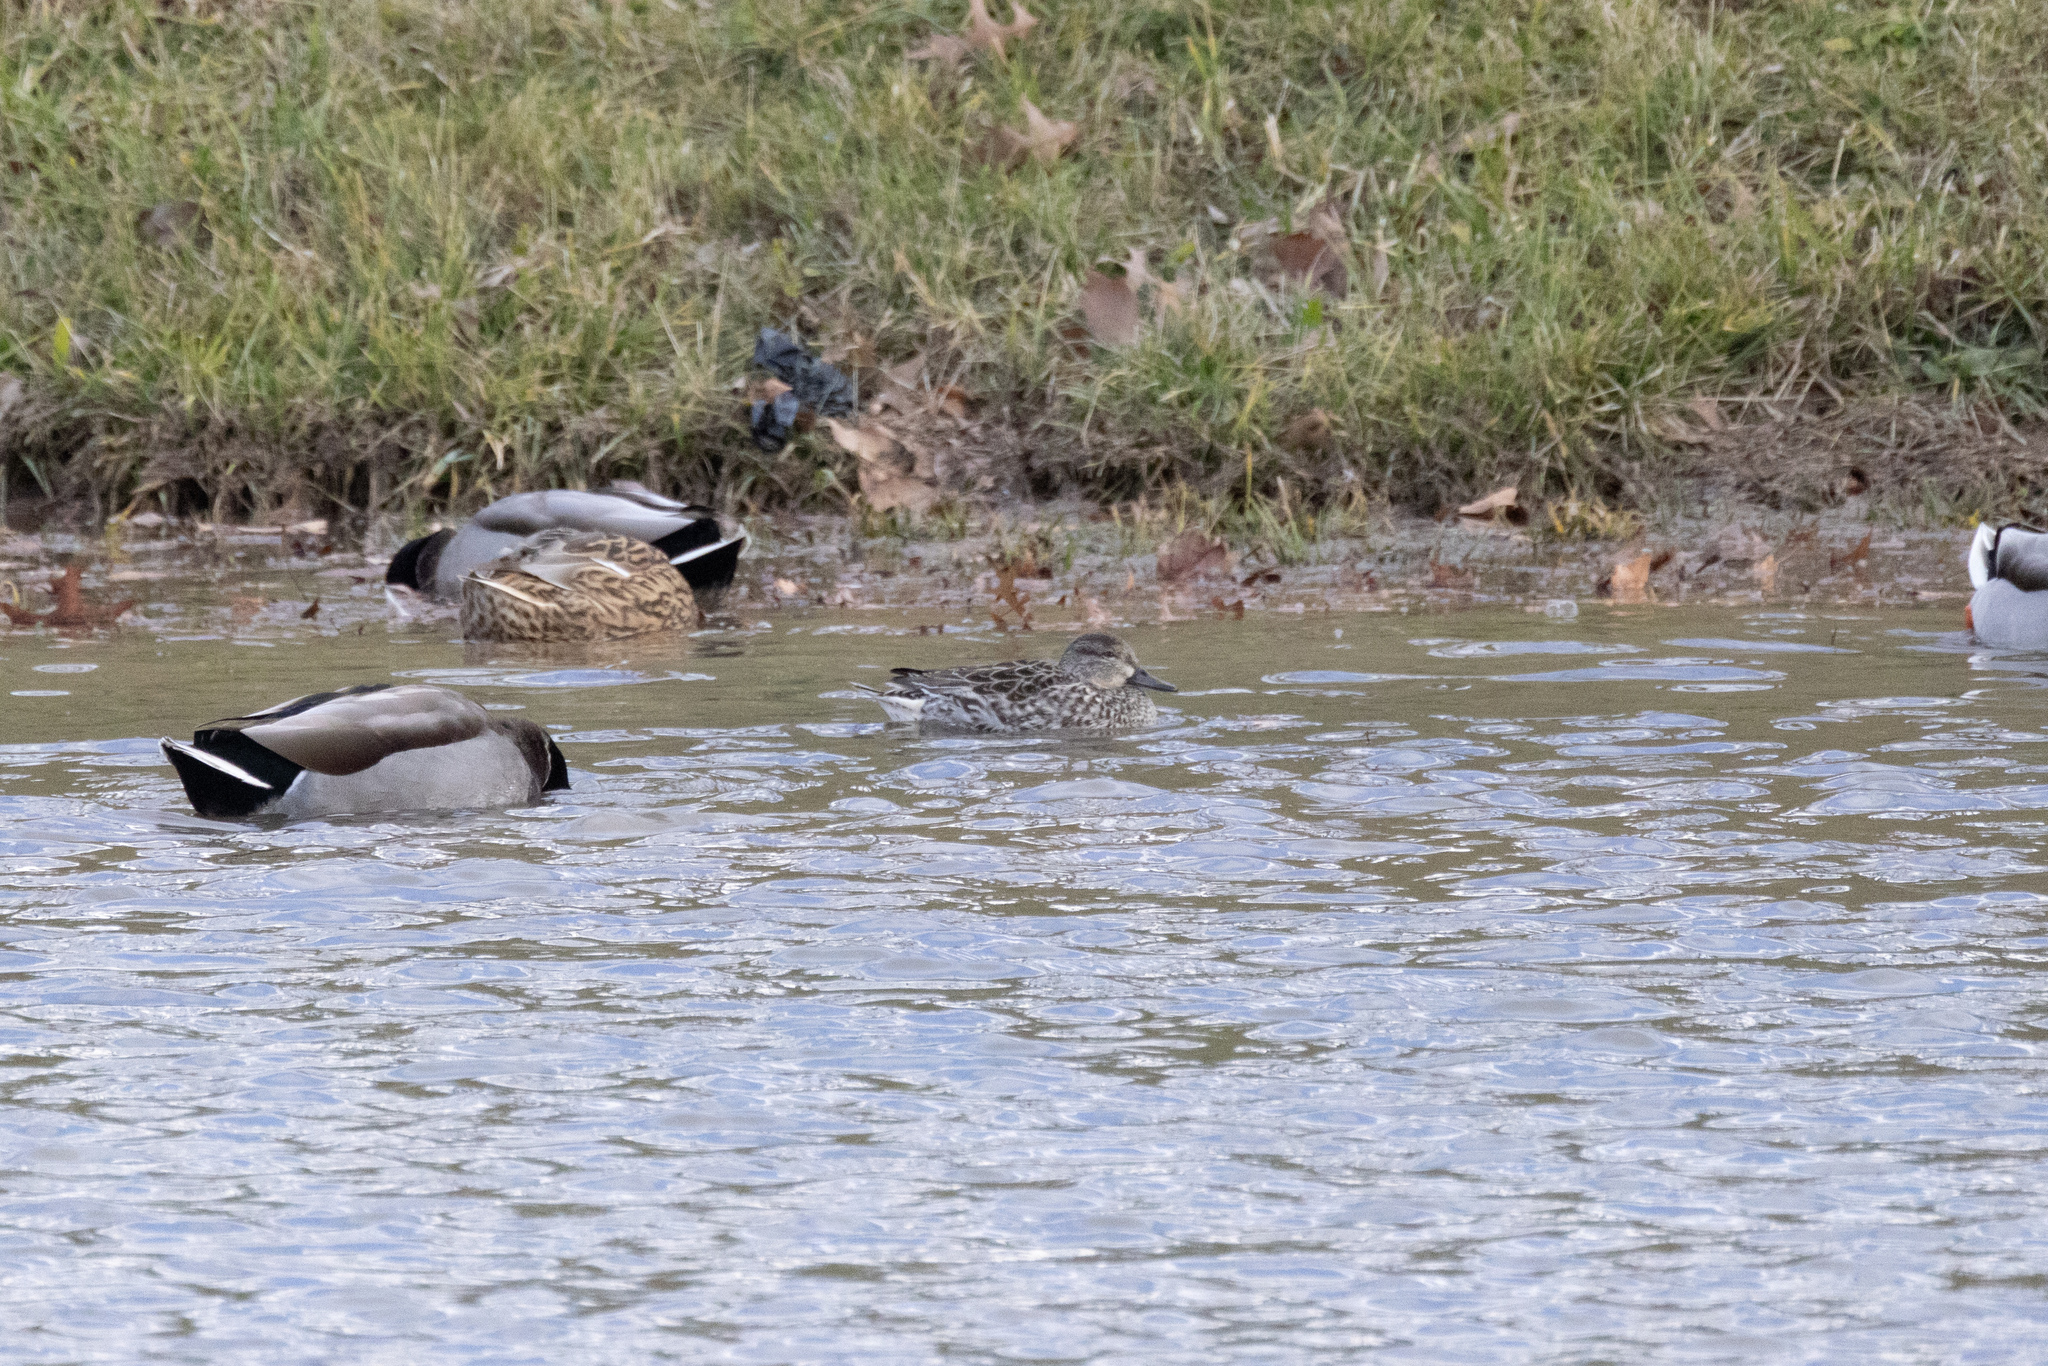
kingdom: Animalia
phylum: Chordata
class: Aves
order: Anseriformes
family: Anatidae
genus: Anas
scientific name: Anas crecca
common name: Eurasian teal
